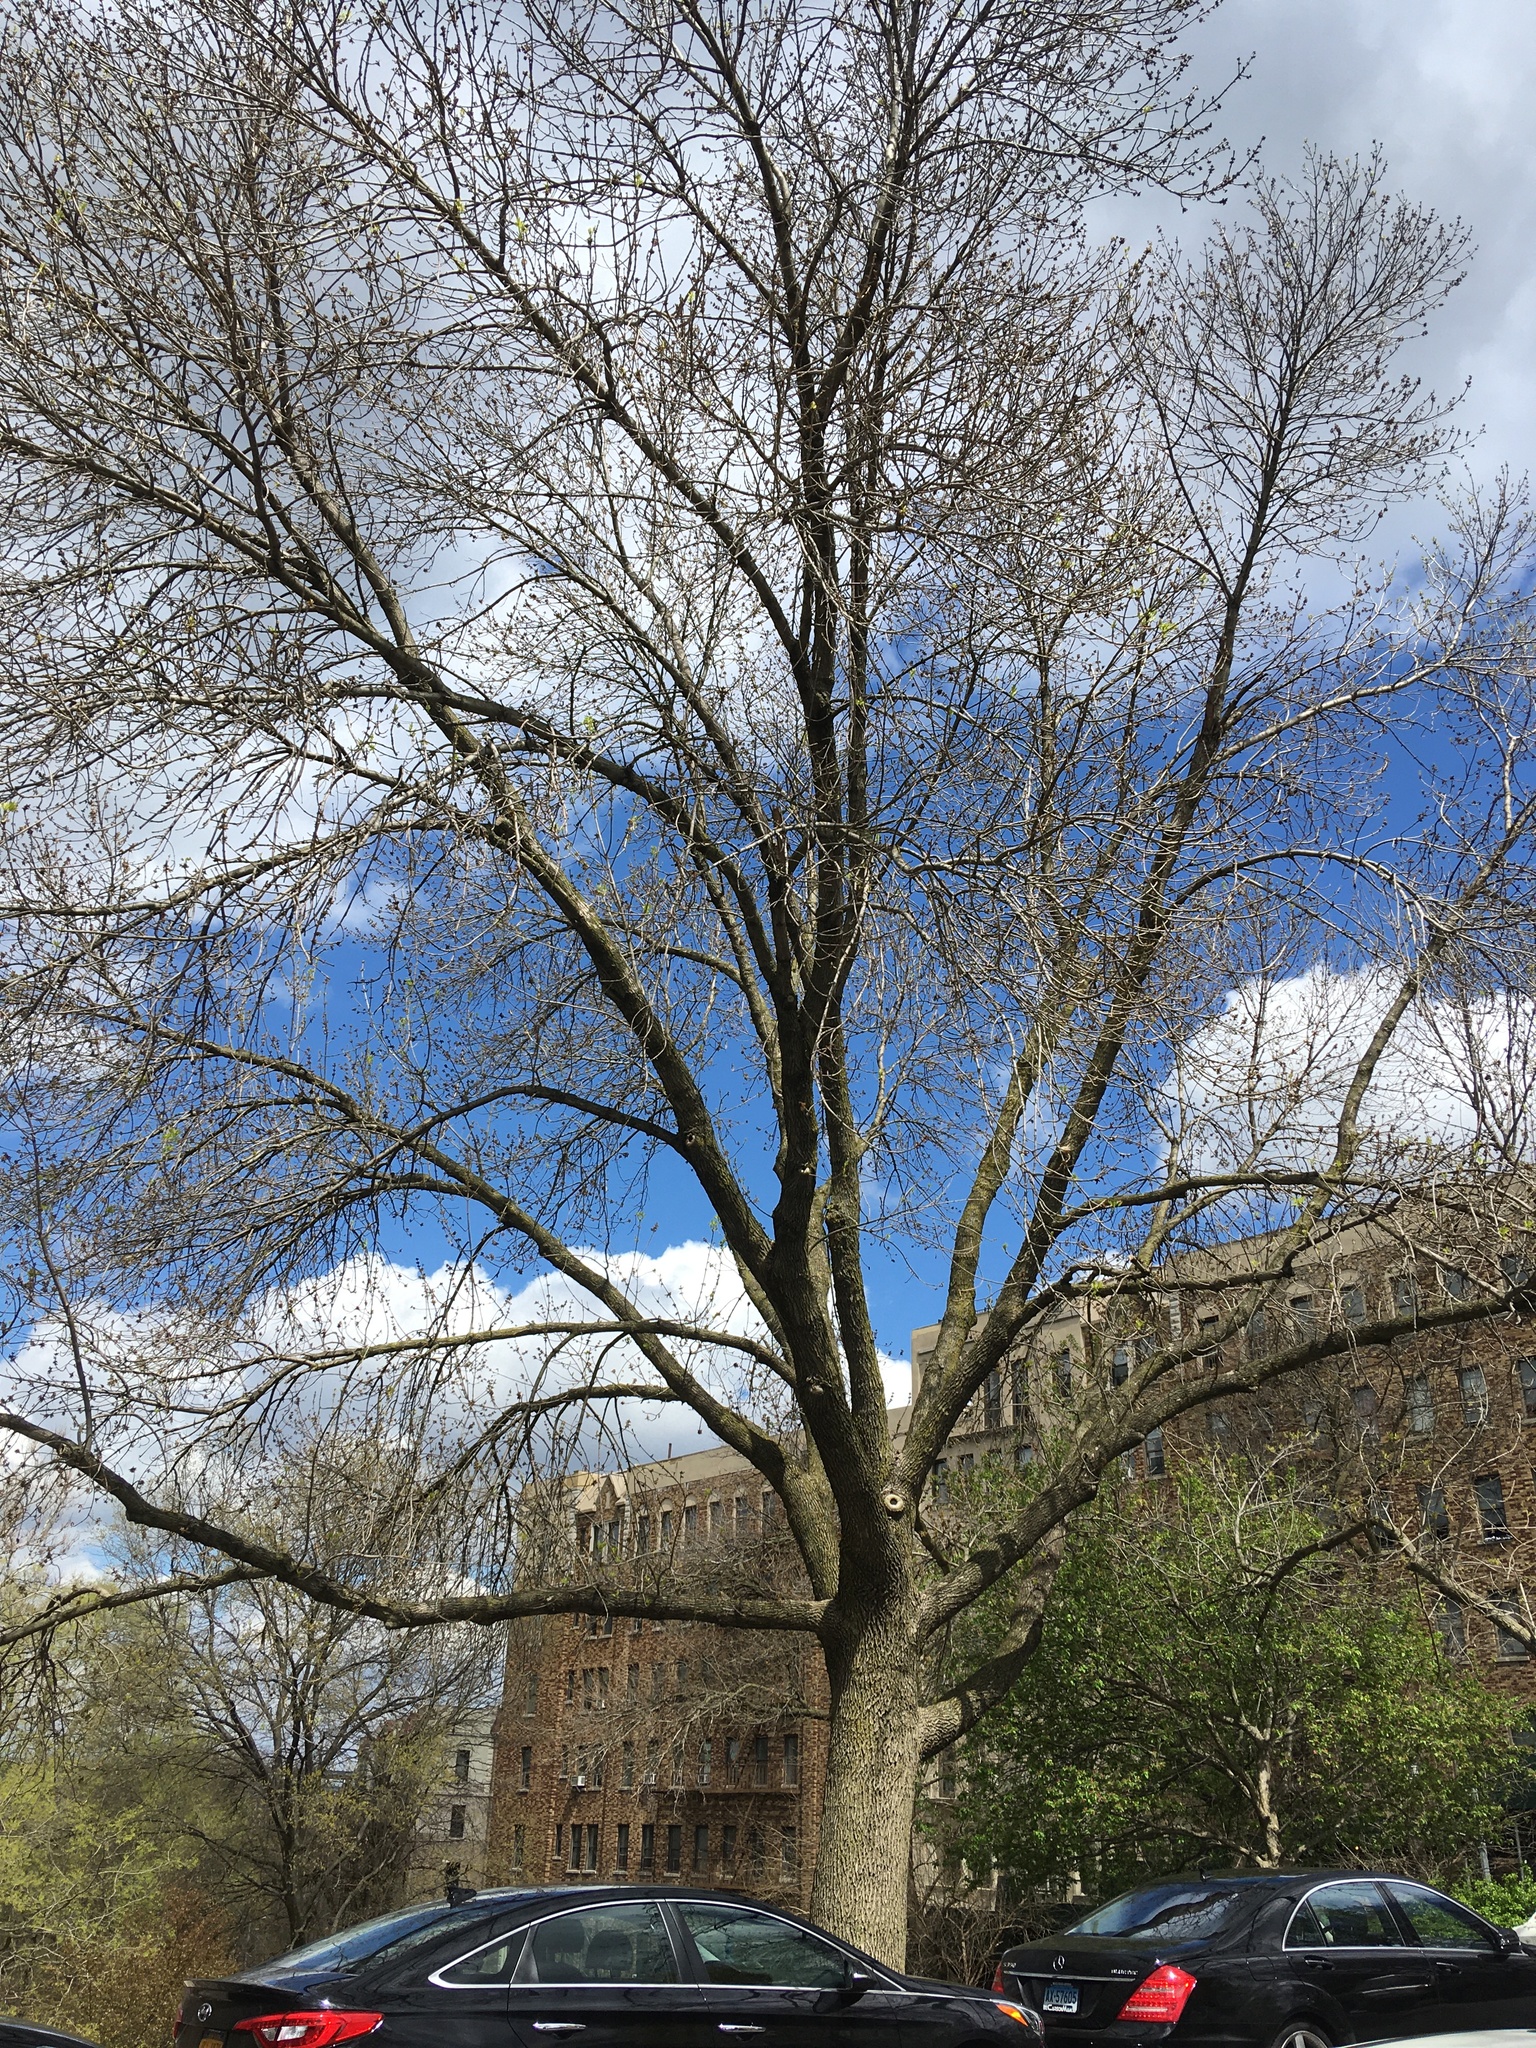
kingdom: Plantae
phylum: Tracheophyta
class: Magnoliopsida
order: Lamiales
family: Oleaceae
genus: Fraxinus
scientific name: Fraxinus pennsylvanica
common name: Green ash
